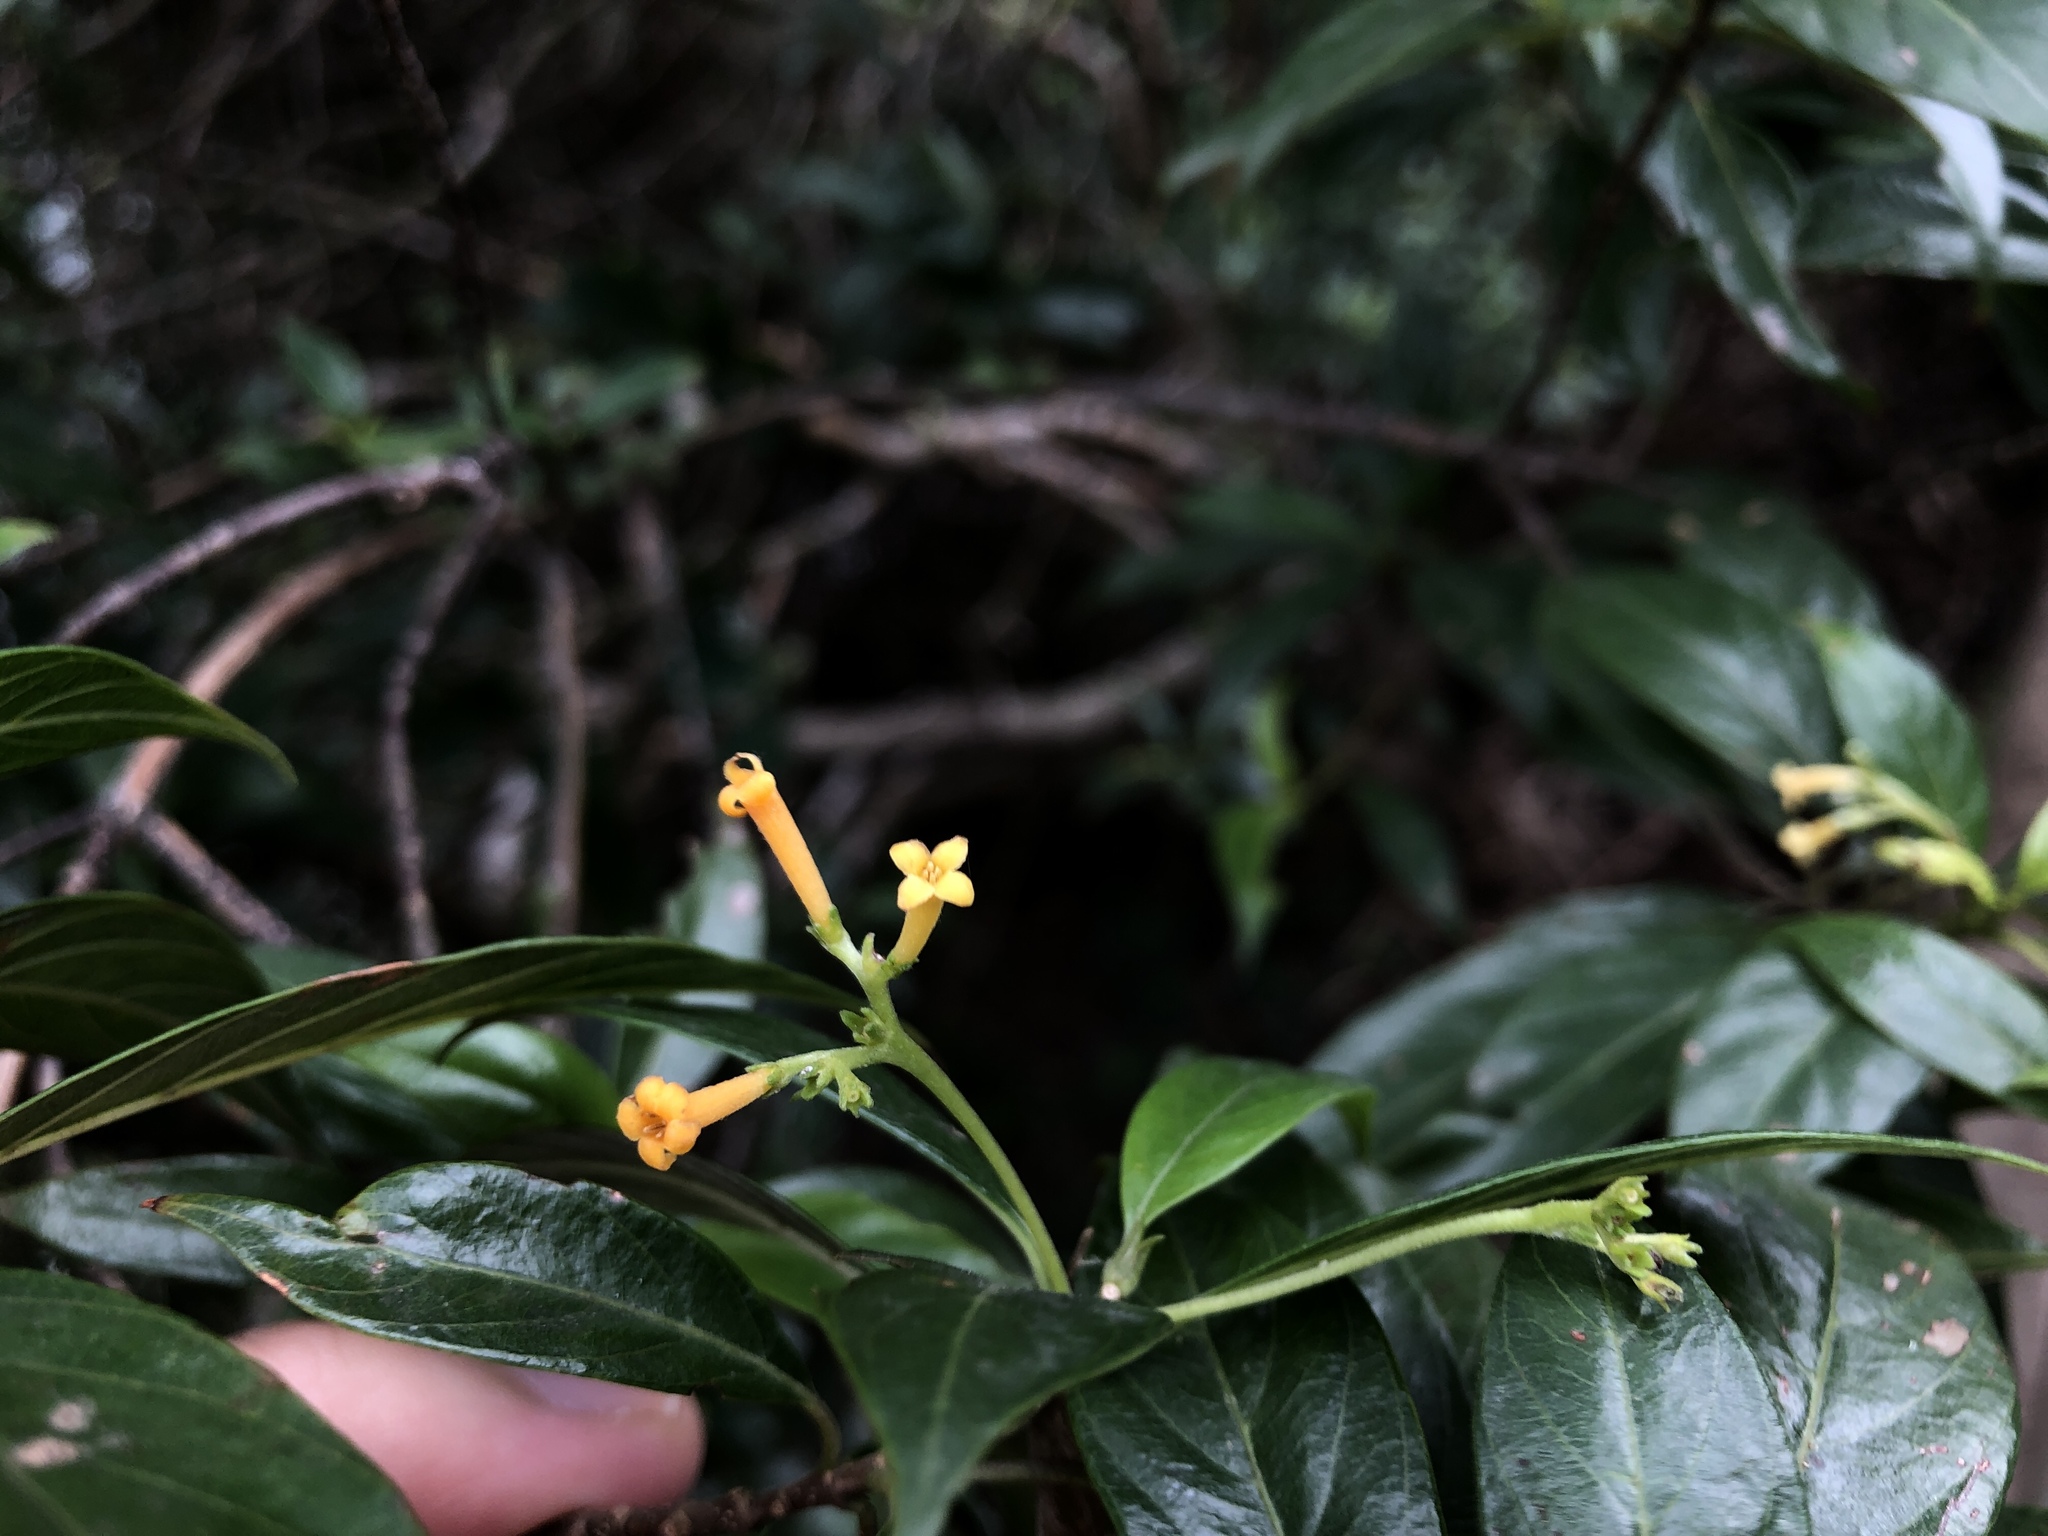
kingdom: Plantae
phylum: Tracheophyta
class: Magnoliopsida
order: Gentianales
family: Rubiaceae
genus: Guettardella
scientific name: Guettardella chinensis
